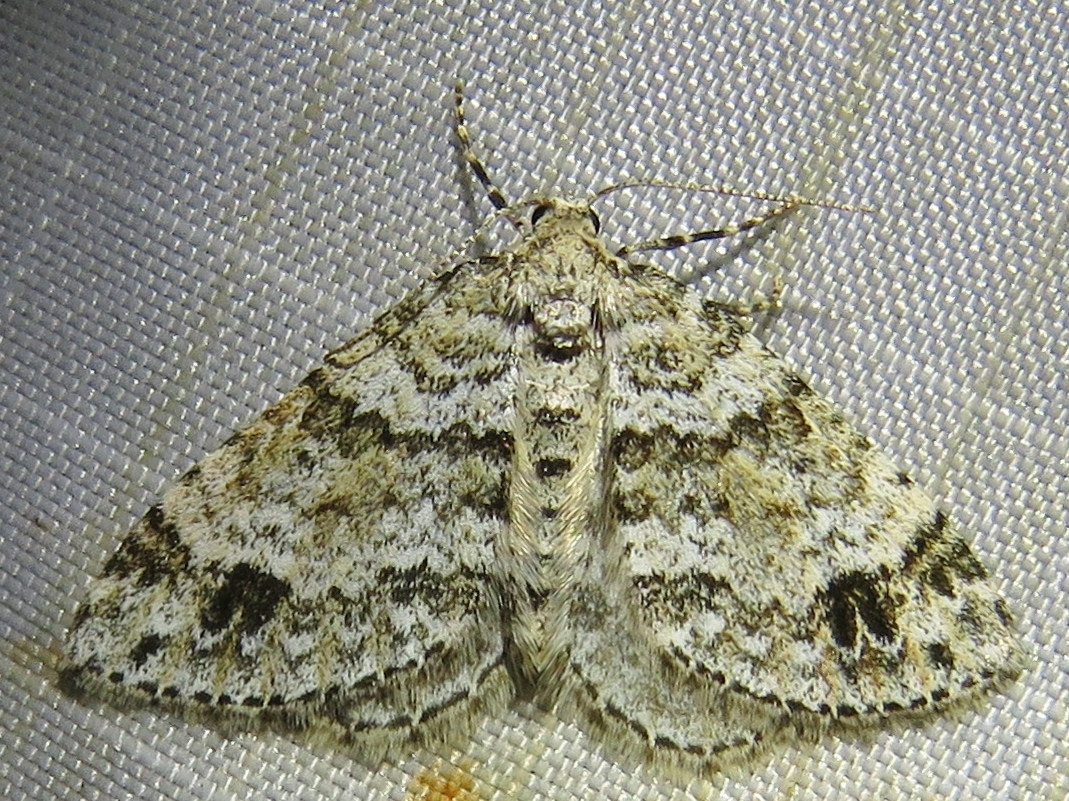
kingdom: Animalia
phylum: Arthropoda
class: Insecta
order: Lepidoptera
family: Geometridae
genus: Perizoma
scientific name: Perizoma didymata
